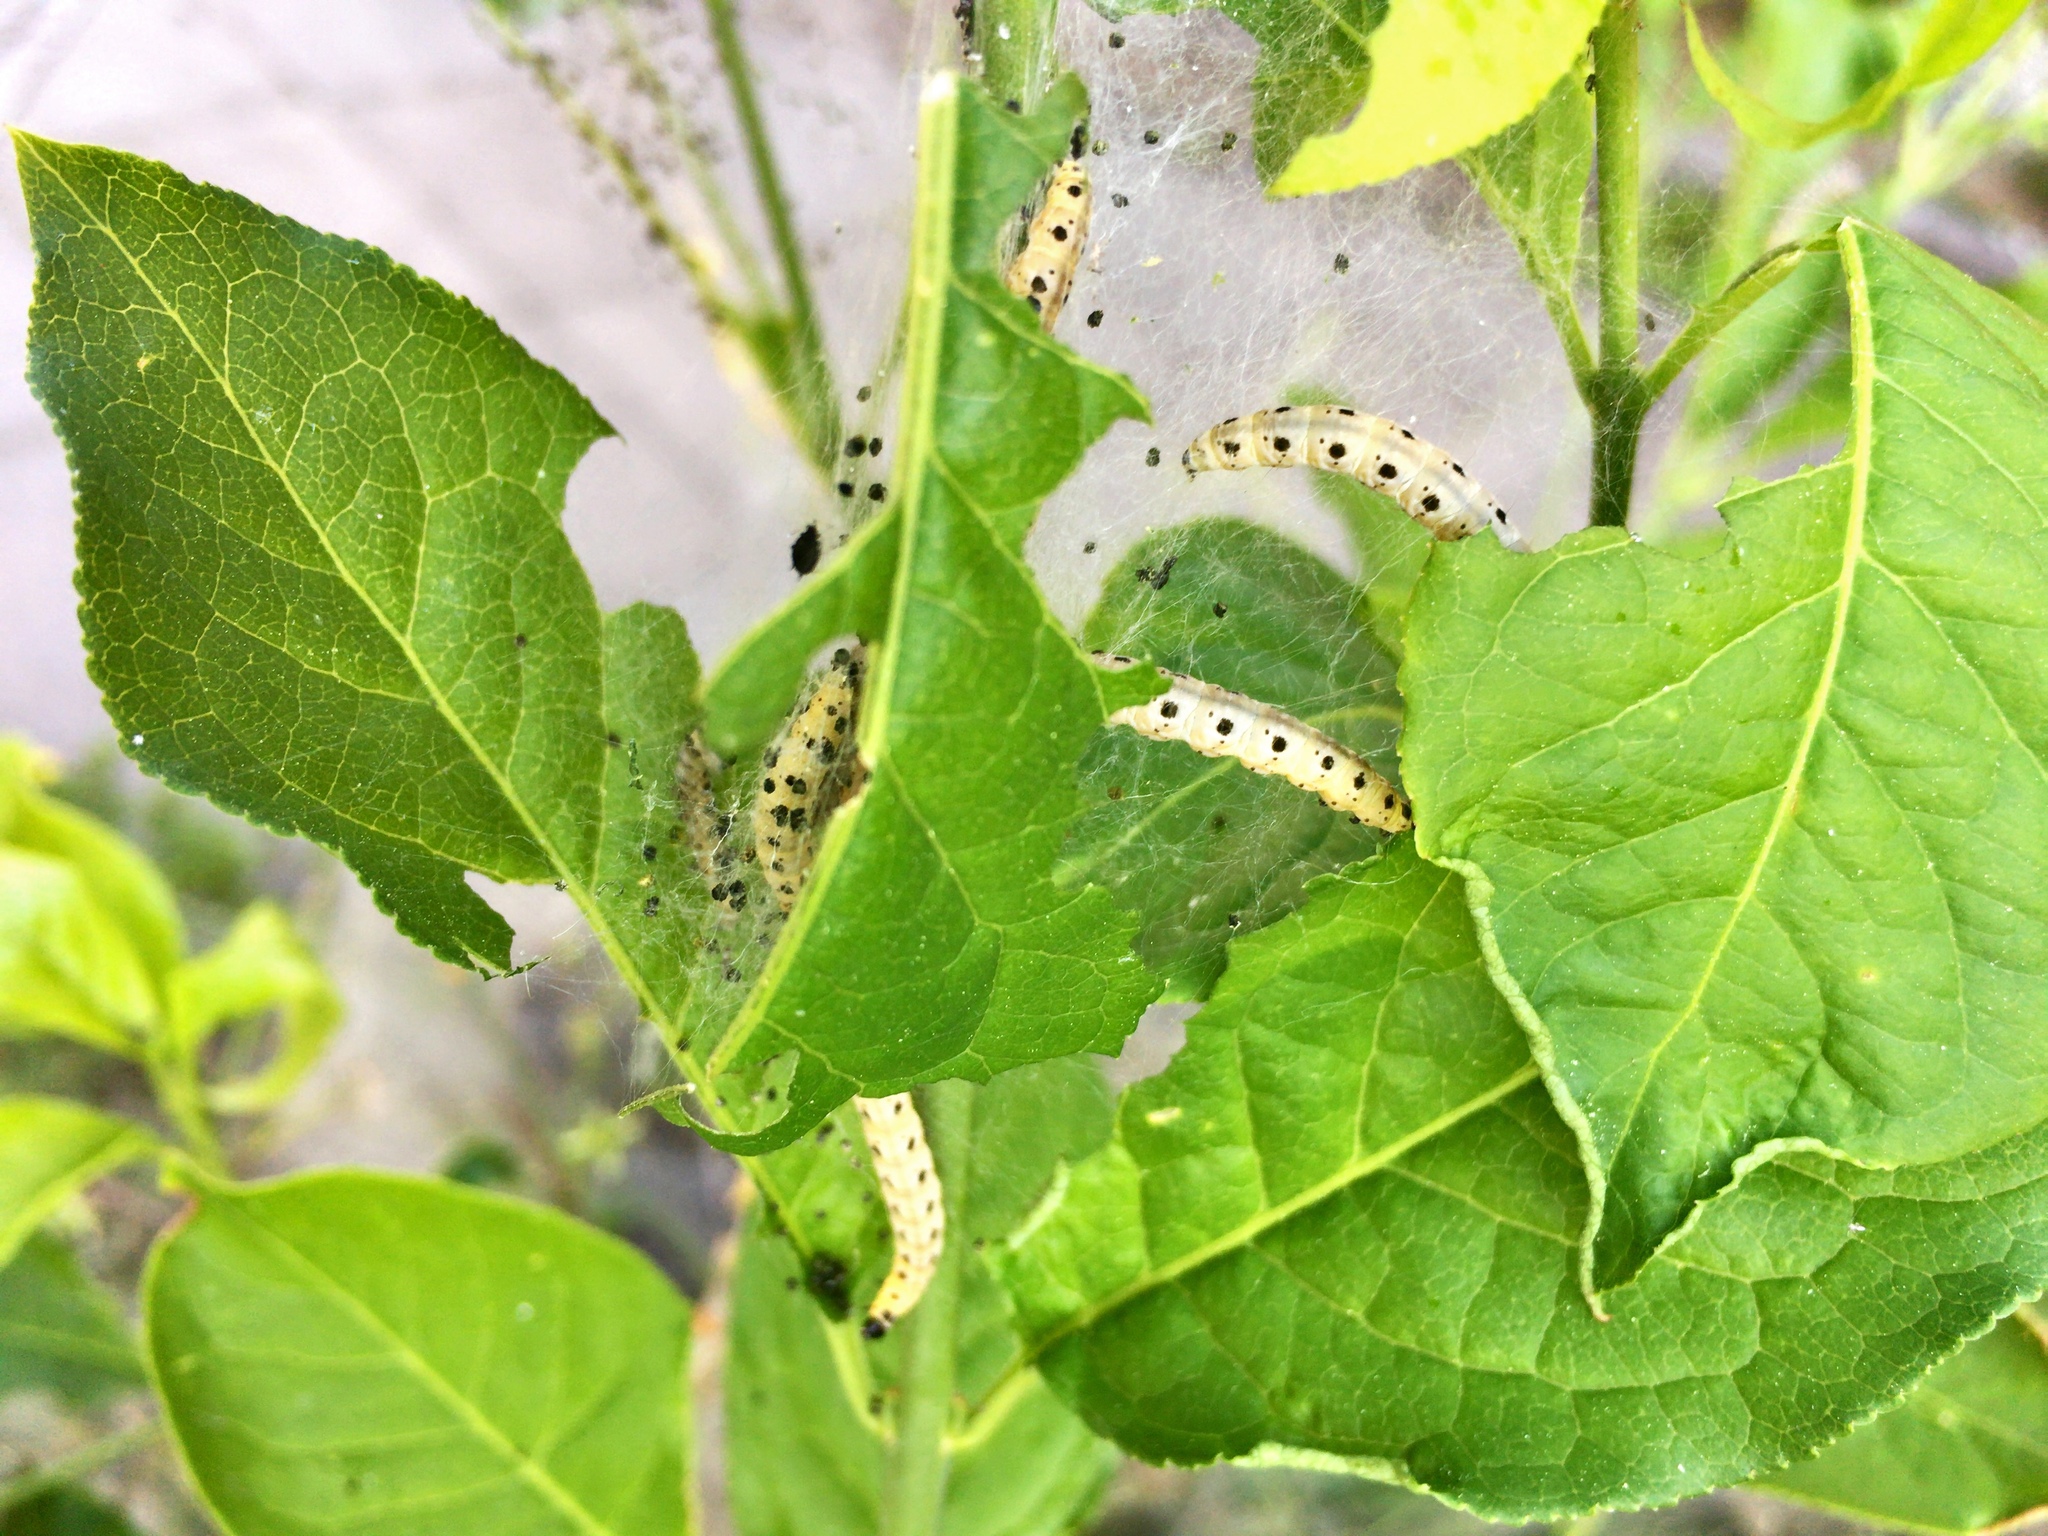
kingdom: Animalia
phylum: Arthropoda
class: Insecta
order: Lepidoptera
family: Yponomeutidae
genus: Yponomeuta
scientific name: Yponomeuta cagnagellus
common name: Spindle ermine
